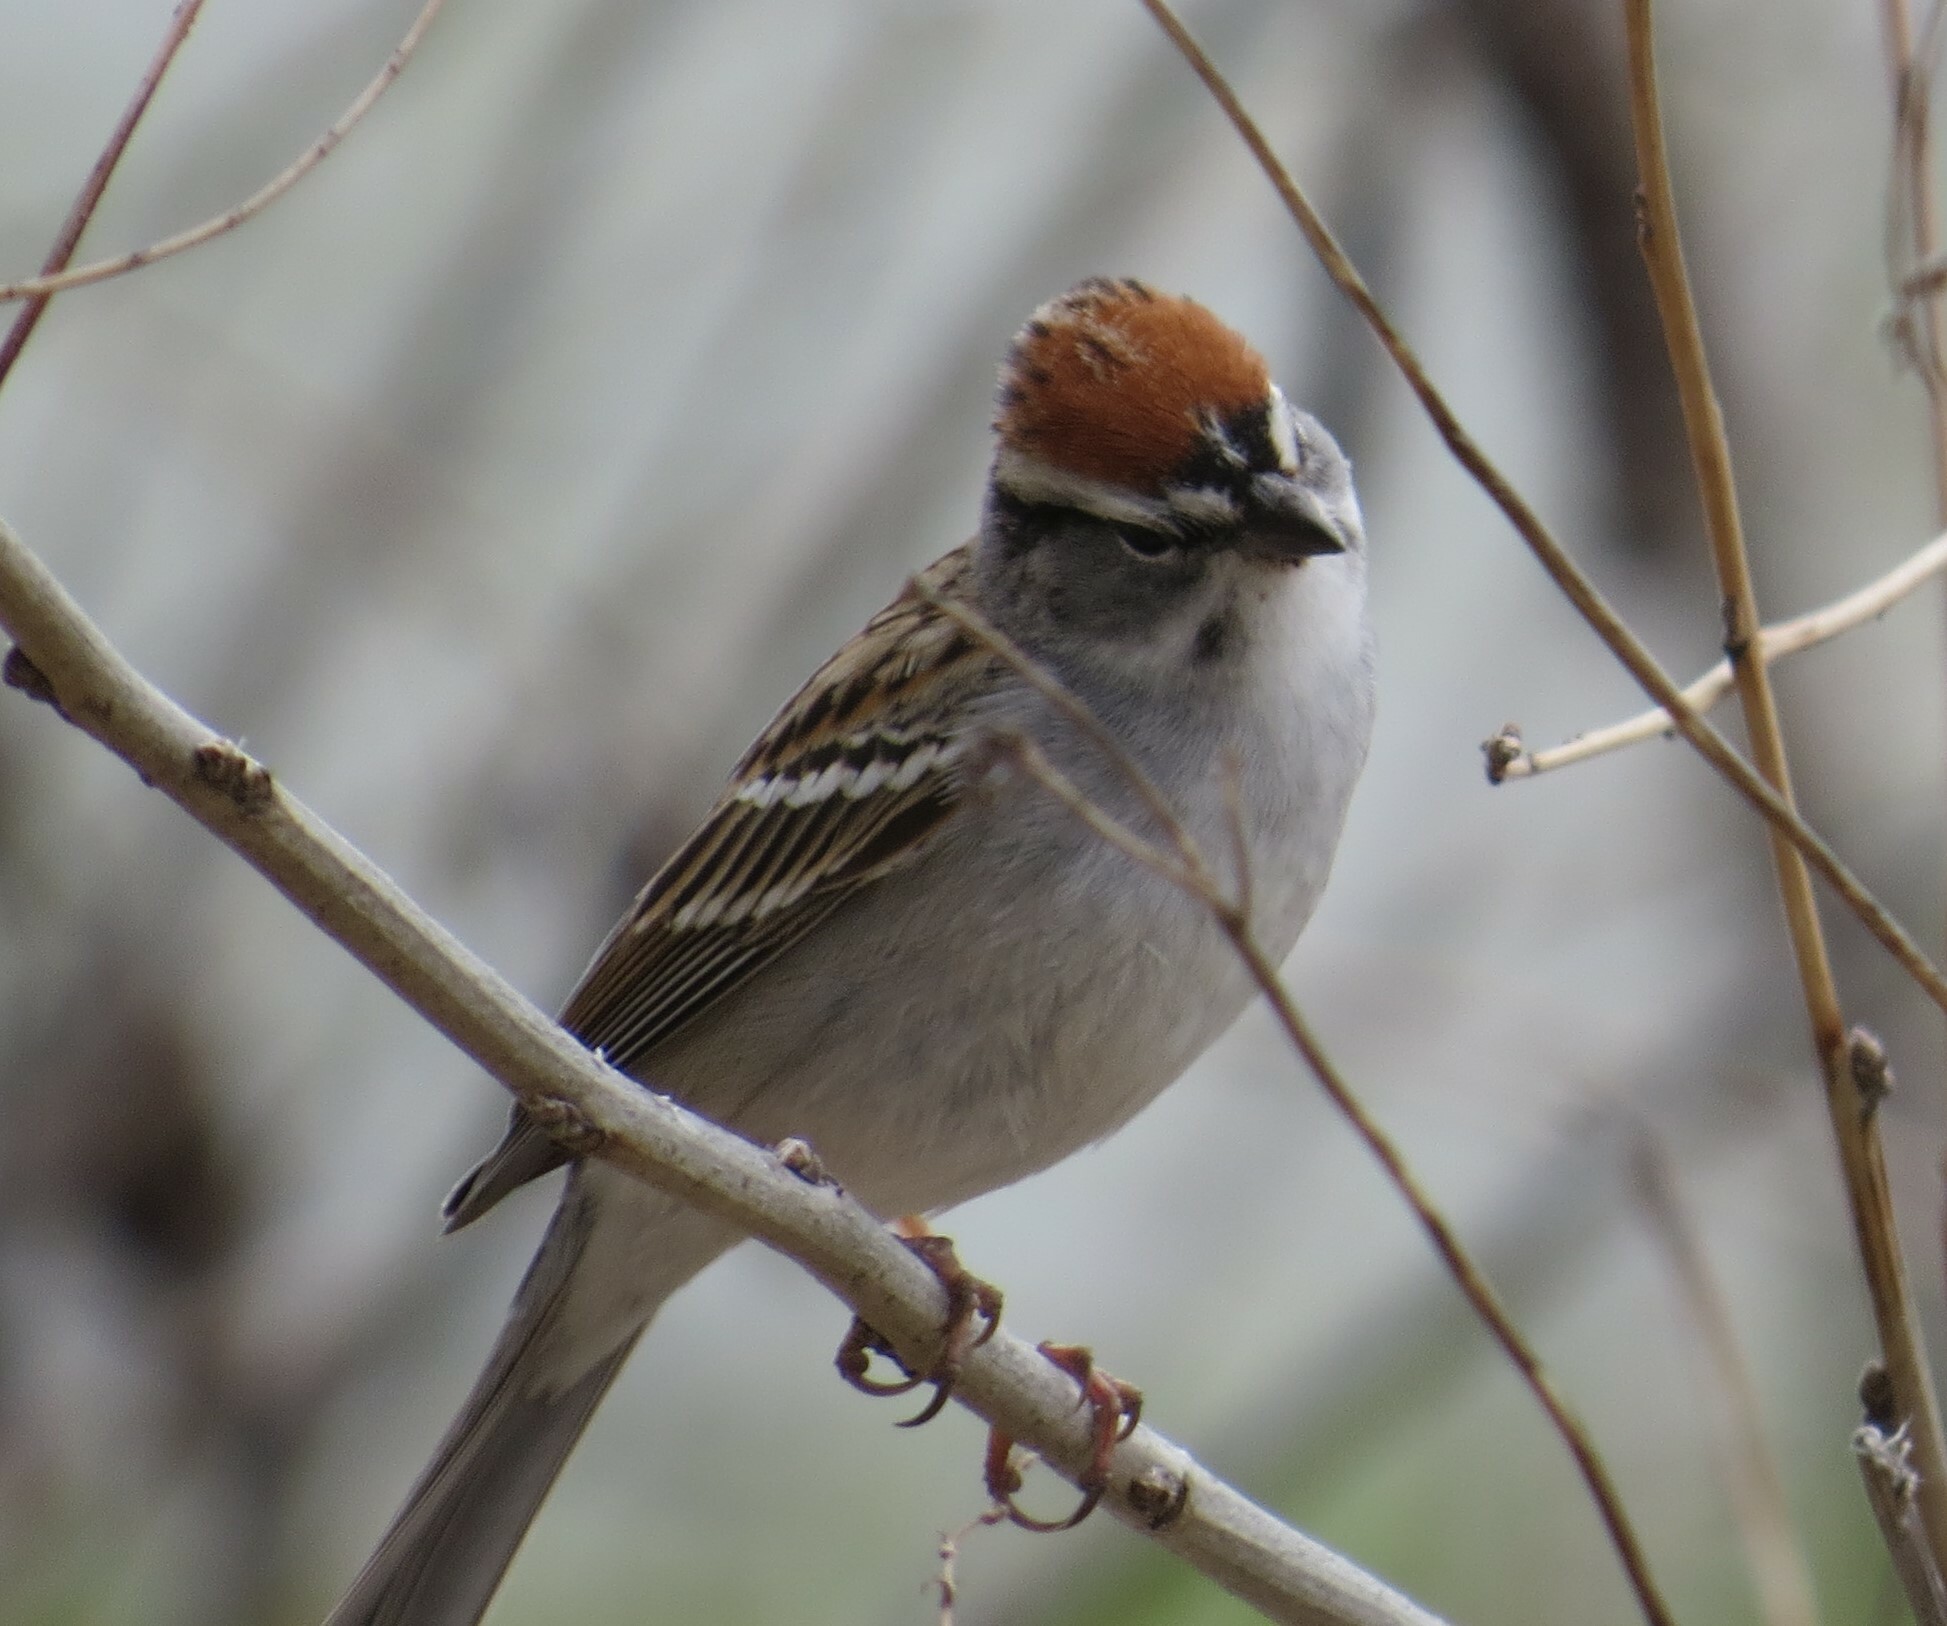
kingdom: Animalia
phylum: Chordata
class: Aves
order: Passeriformes
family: Passerellidae
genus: Spizella
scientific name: Spizella passerina
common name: Chipping sparrow
